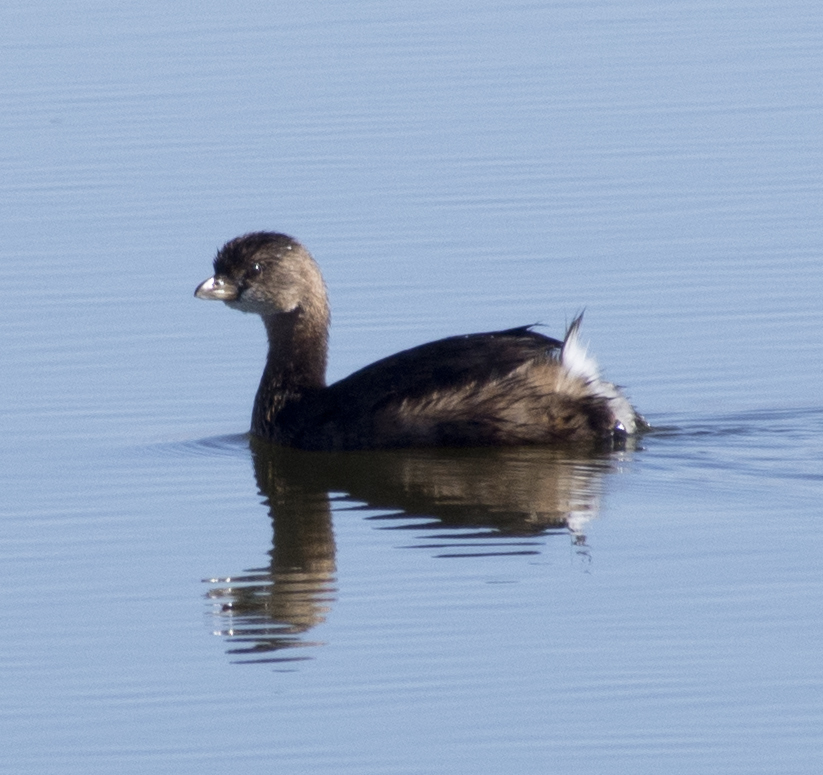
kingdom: Animalia
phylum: Chordata
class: Aves
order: Podicipediformes
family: Podicipedidae
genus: Podilymbus
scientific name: Podilymbus podiceps
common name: Pied-billed grebe
